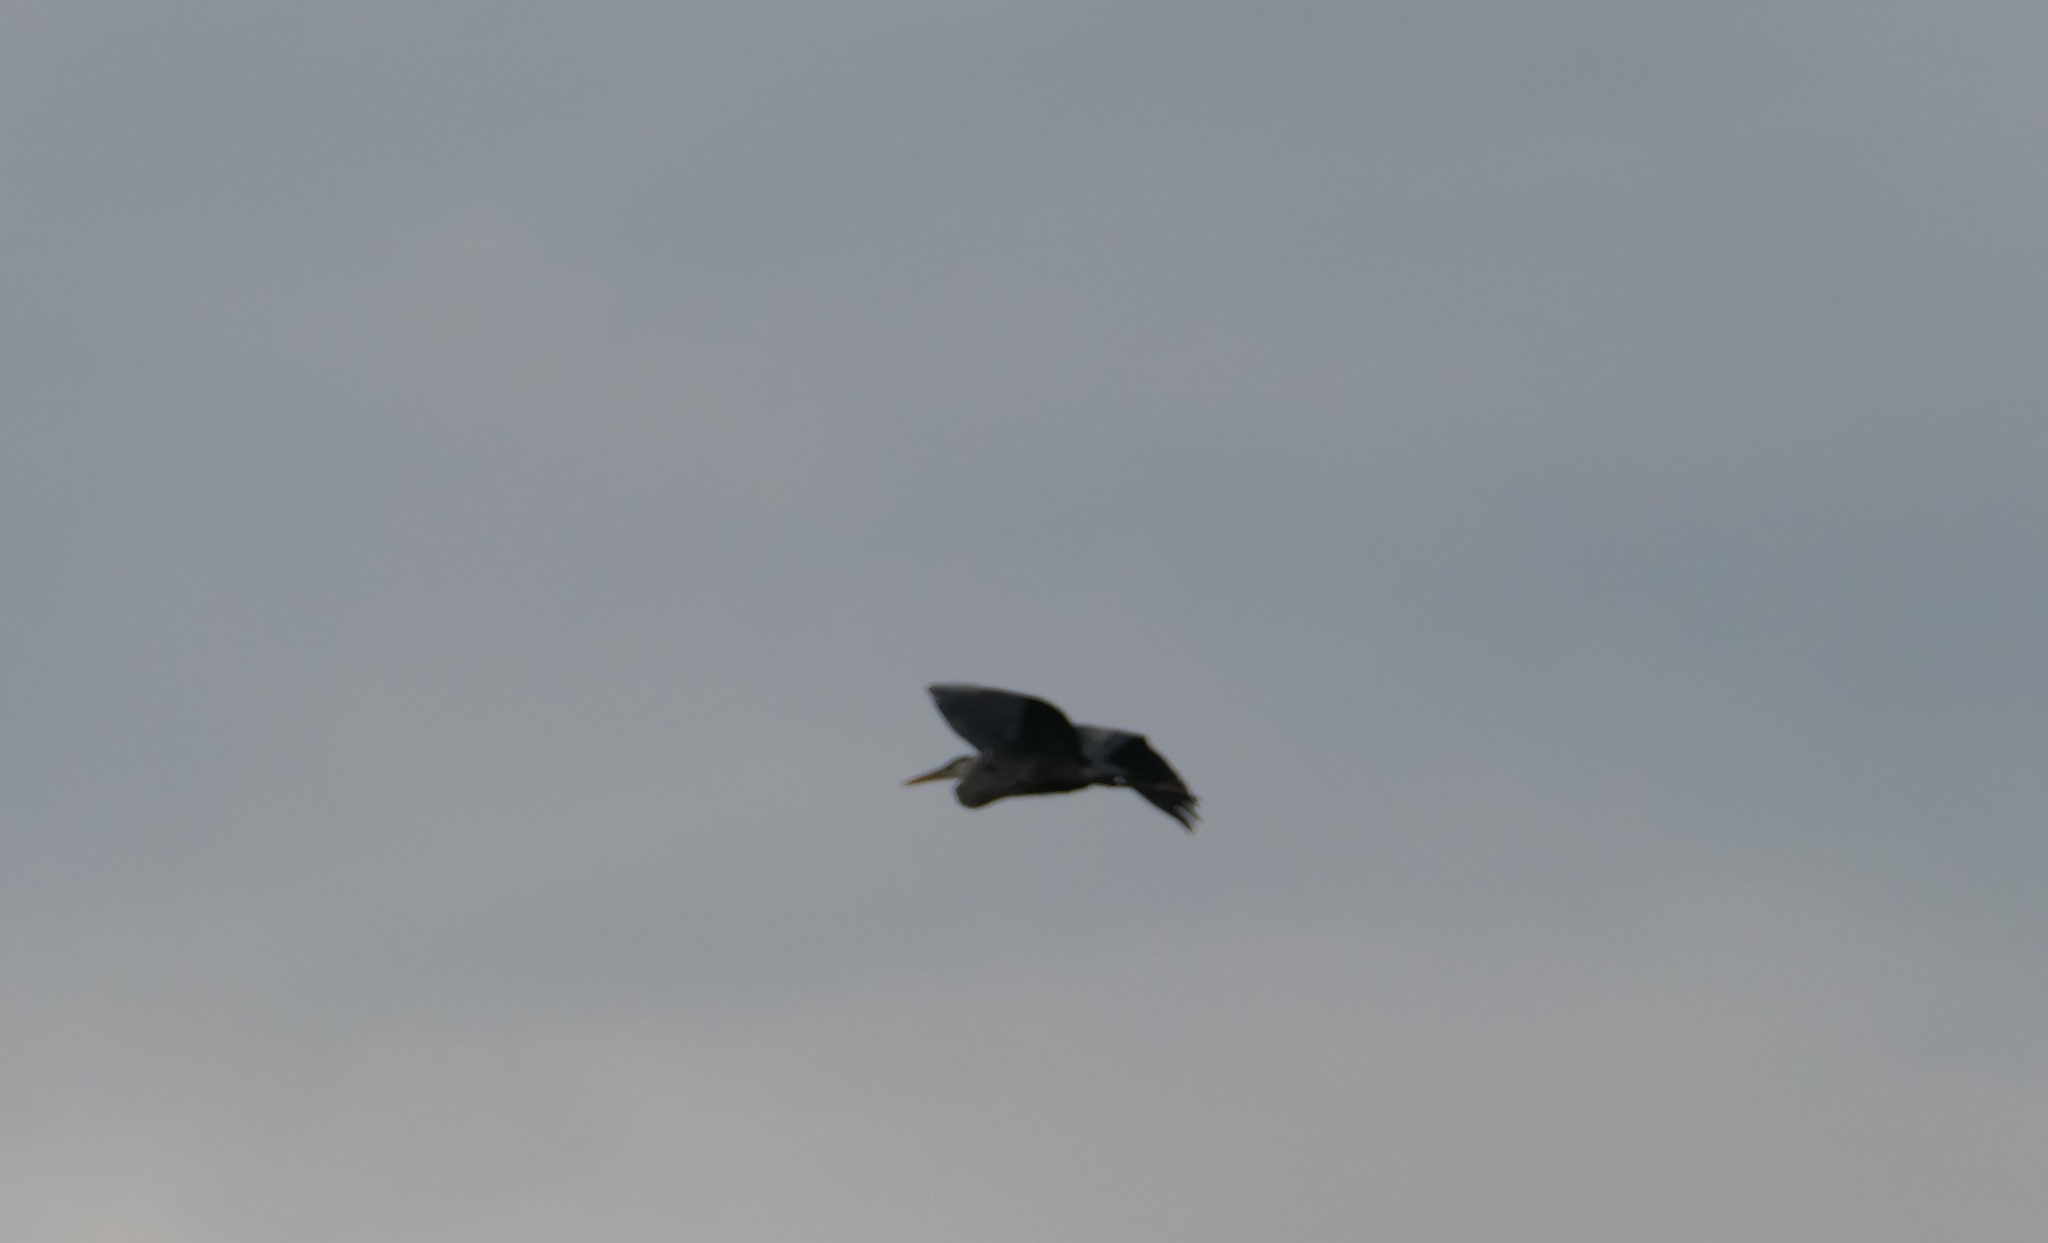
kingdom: Animalia
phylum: Chordata
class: Aves
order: Pelecaniformes
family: Ardeidae
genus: Ardea
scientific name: Ardea herodias
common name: Great blue heron
